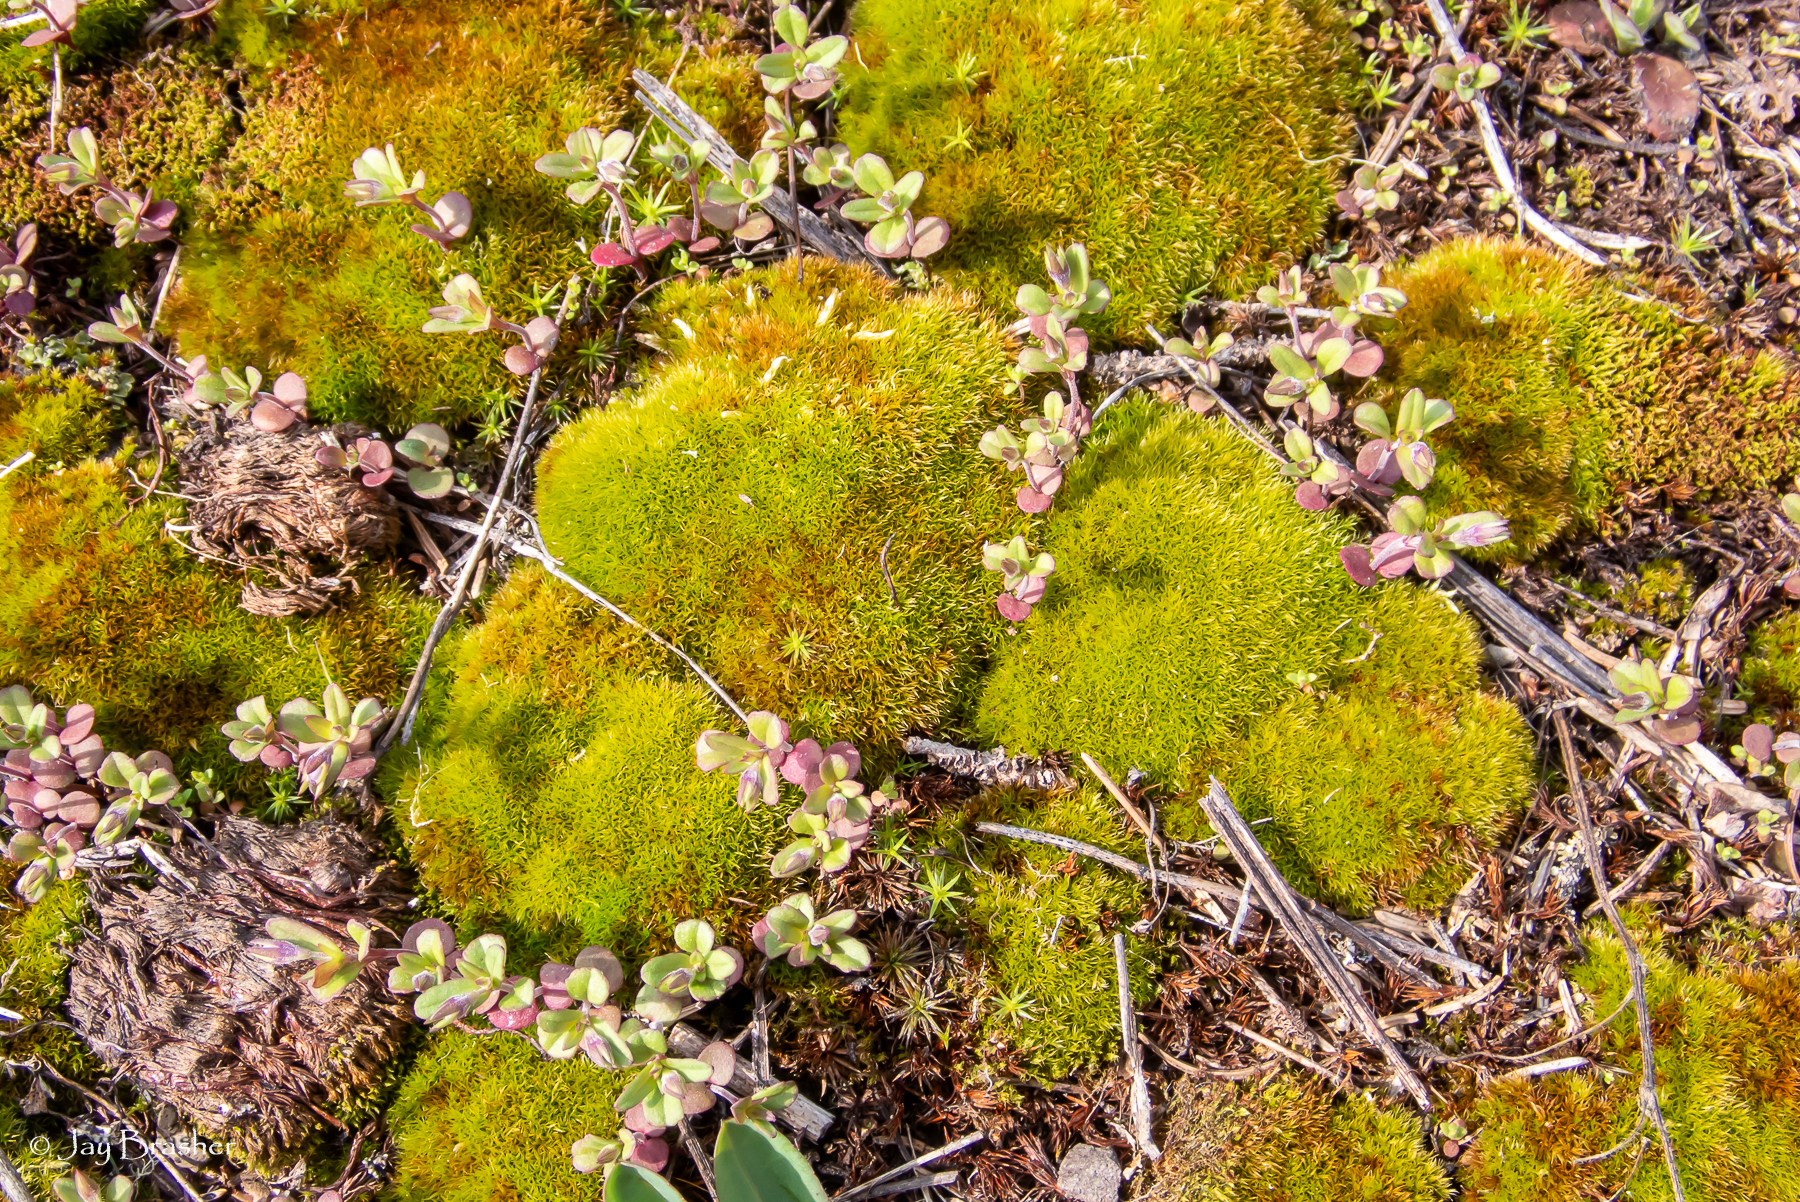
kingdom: Plantae
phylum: Bryophyta
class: Bryopsida
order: Dicranales
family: Ditrichaceae
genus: Ceratodon
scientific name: Ceratodon purpureus
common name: Redshank
